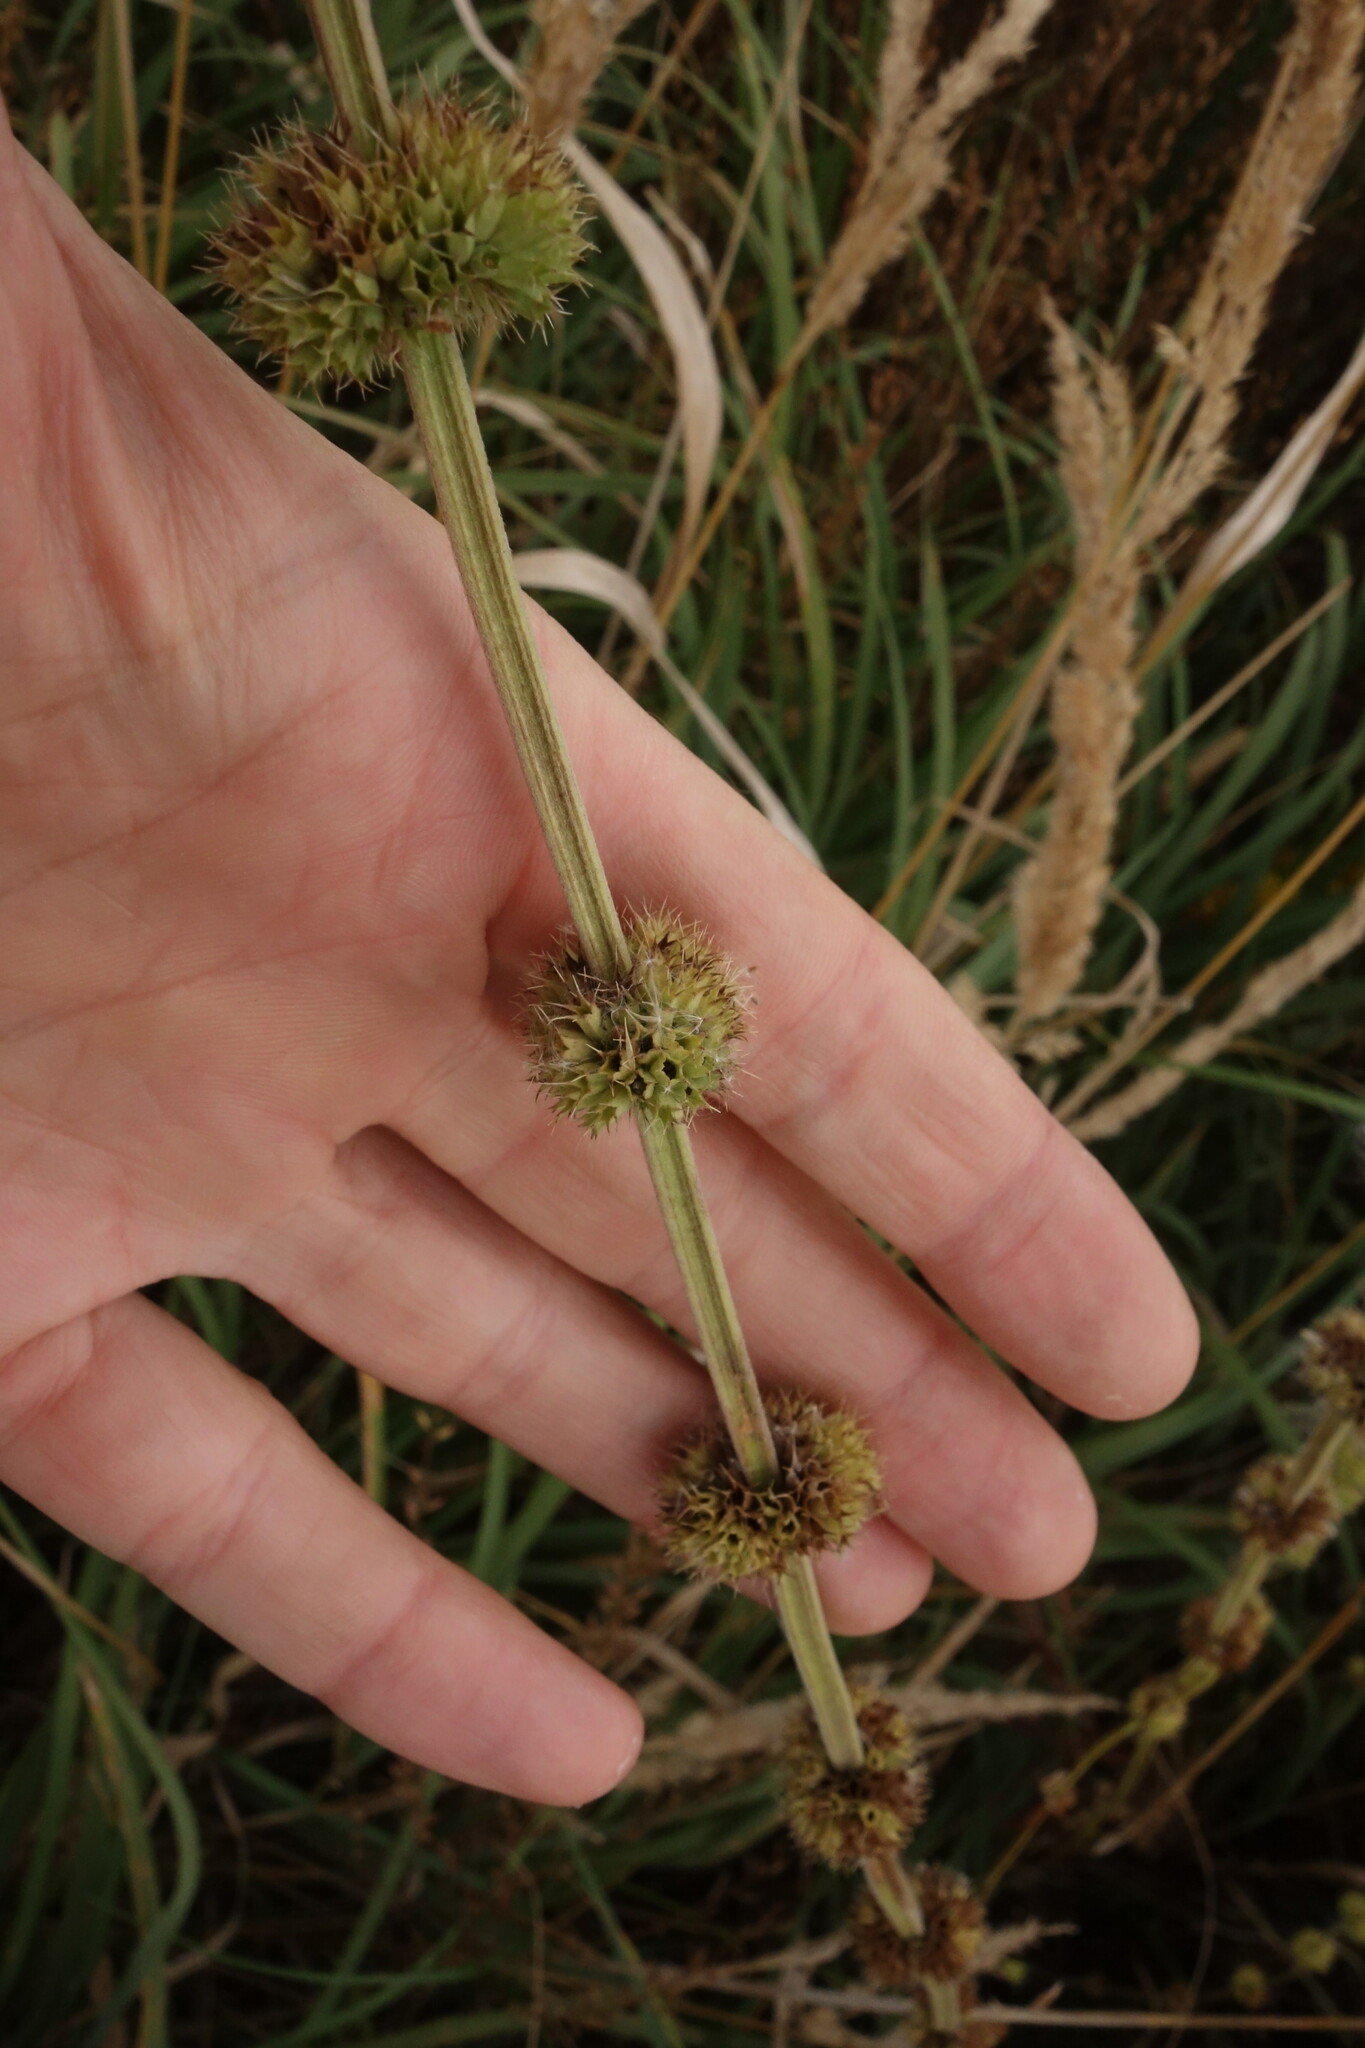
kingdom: Plantae
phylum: Tracheophyta
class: Magnoliopsida
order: Lamiales
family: Lamiaceae
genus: Chaiturus
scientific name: Chaiturus marrubiastrum
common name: Lion's tail
